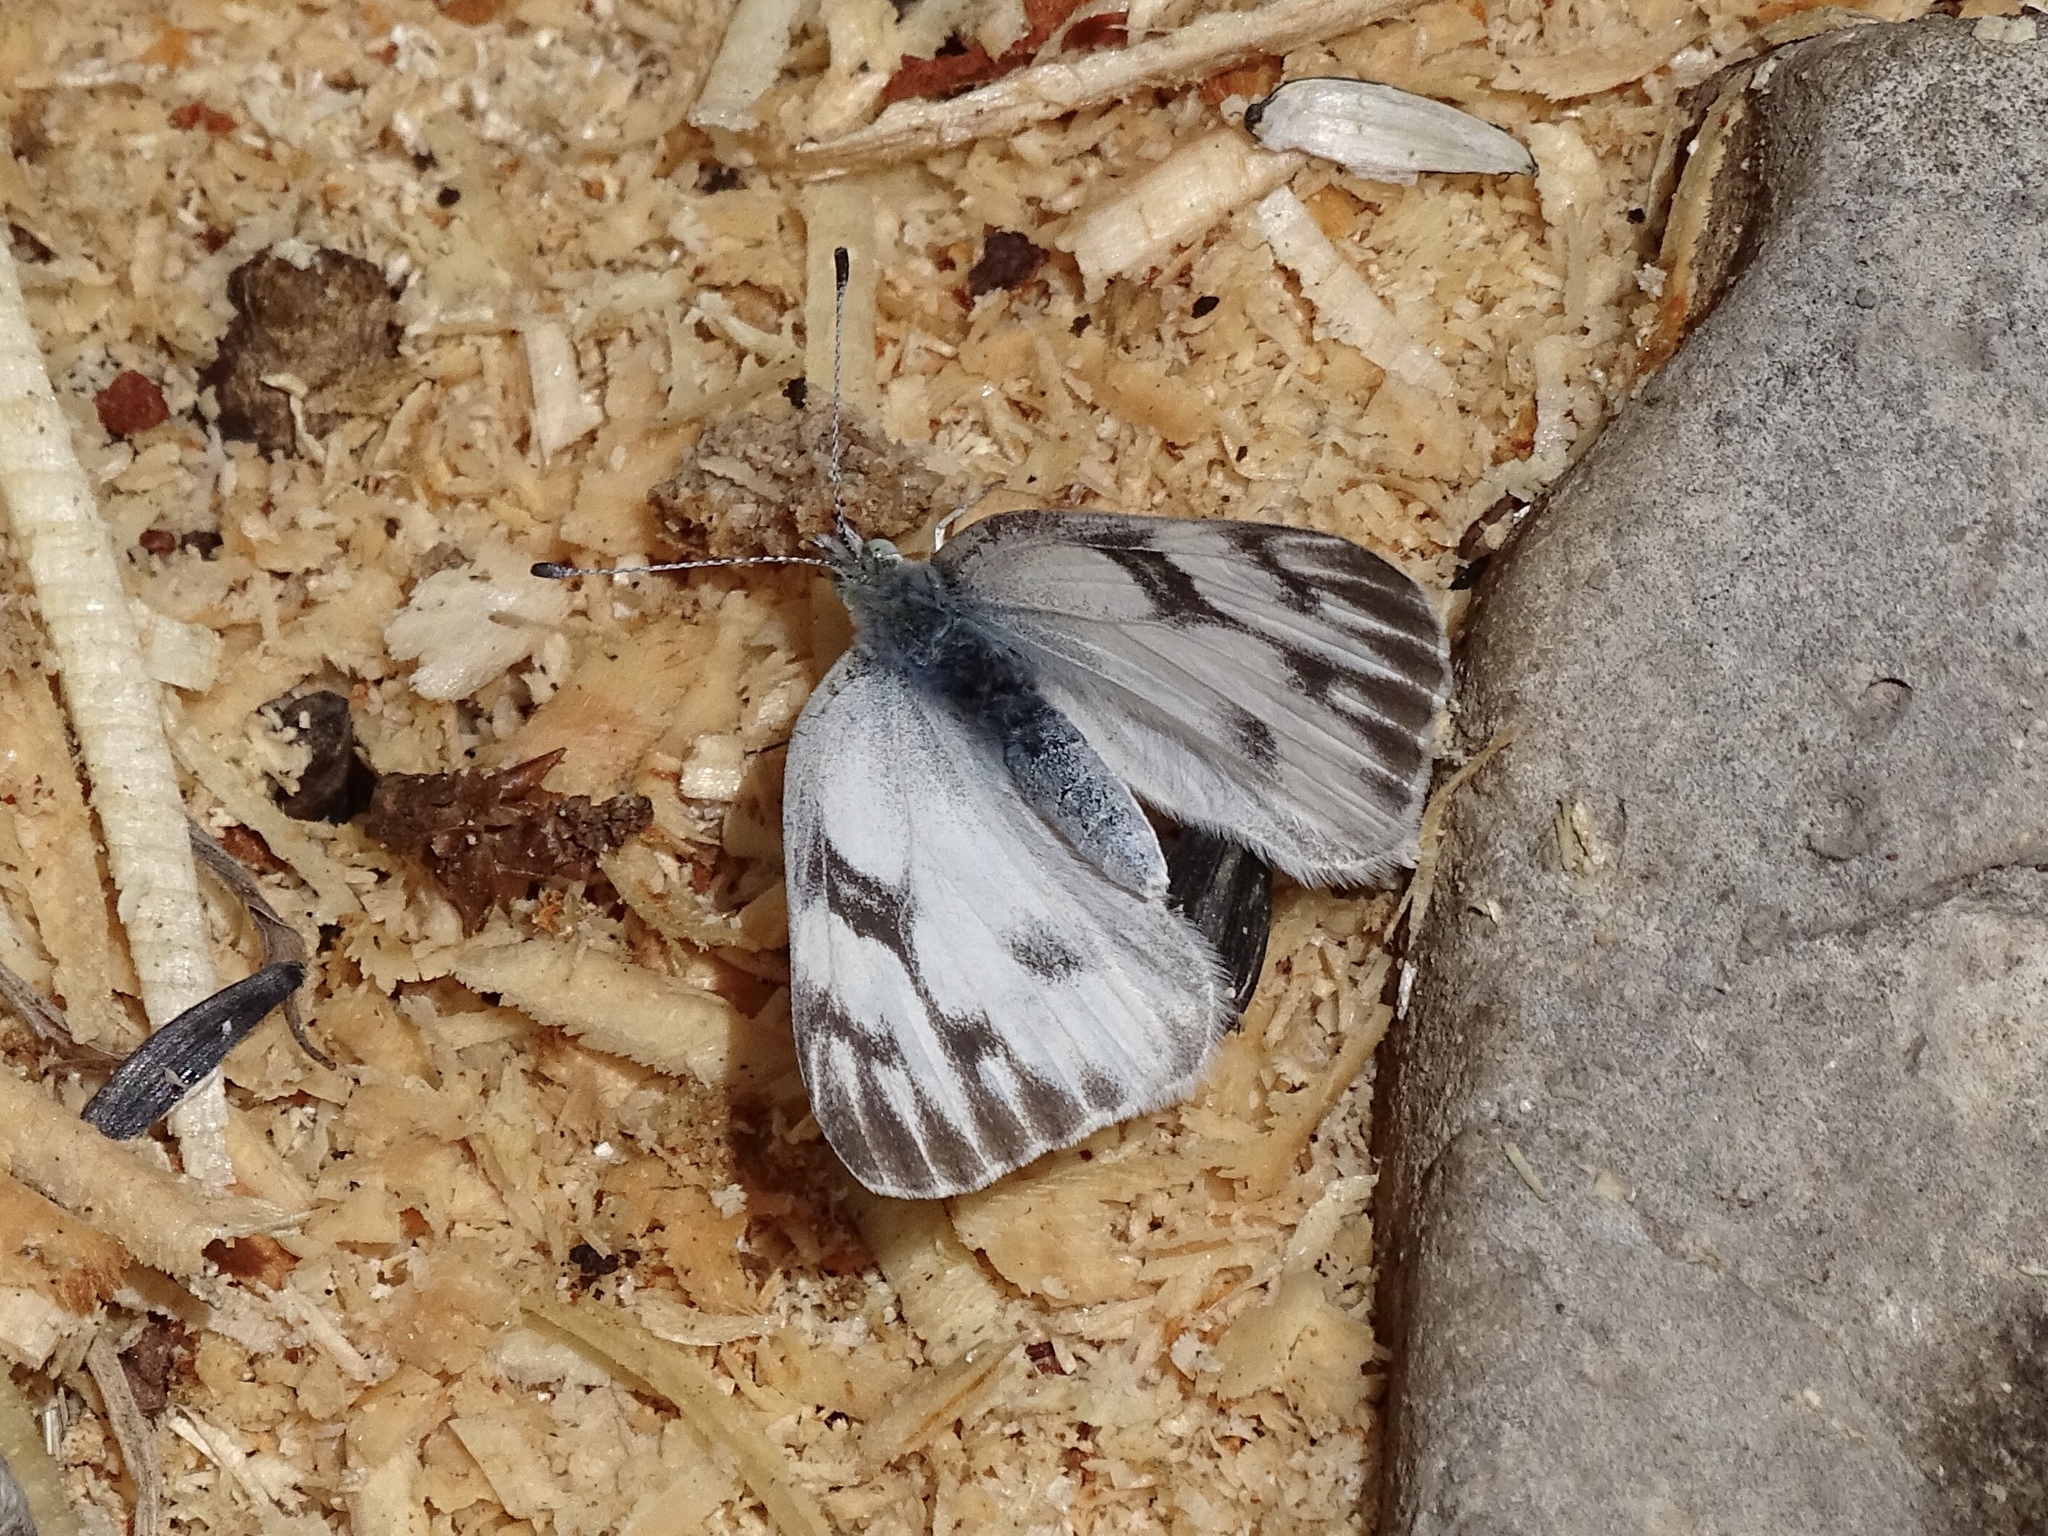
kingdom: Animalia
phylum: Arthropoda
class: Insecta
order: Lepidoptera
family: Pieridae
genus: Pontia
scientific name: Pontia protodice
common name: Checkered white
